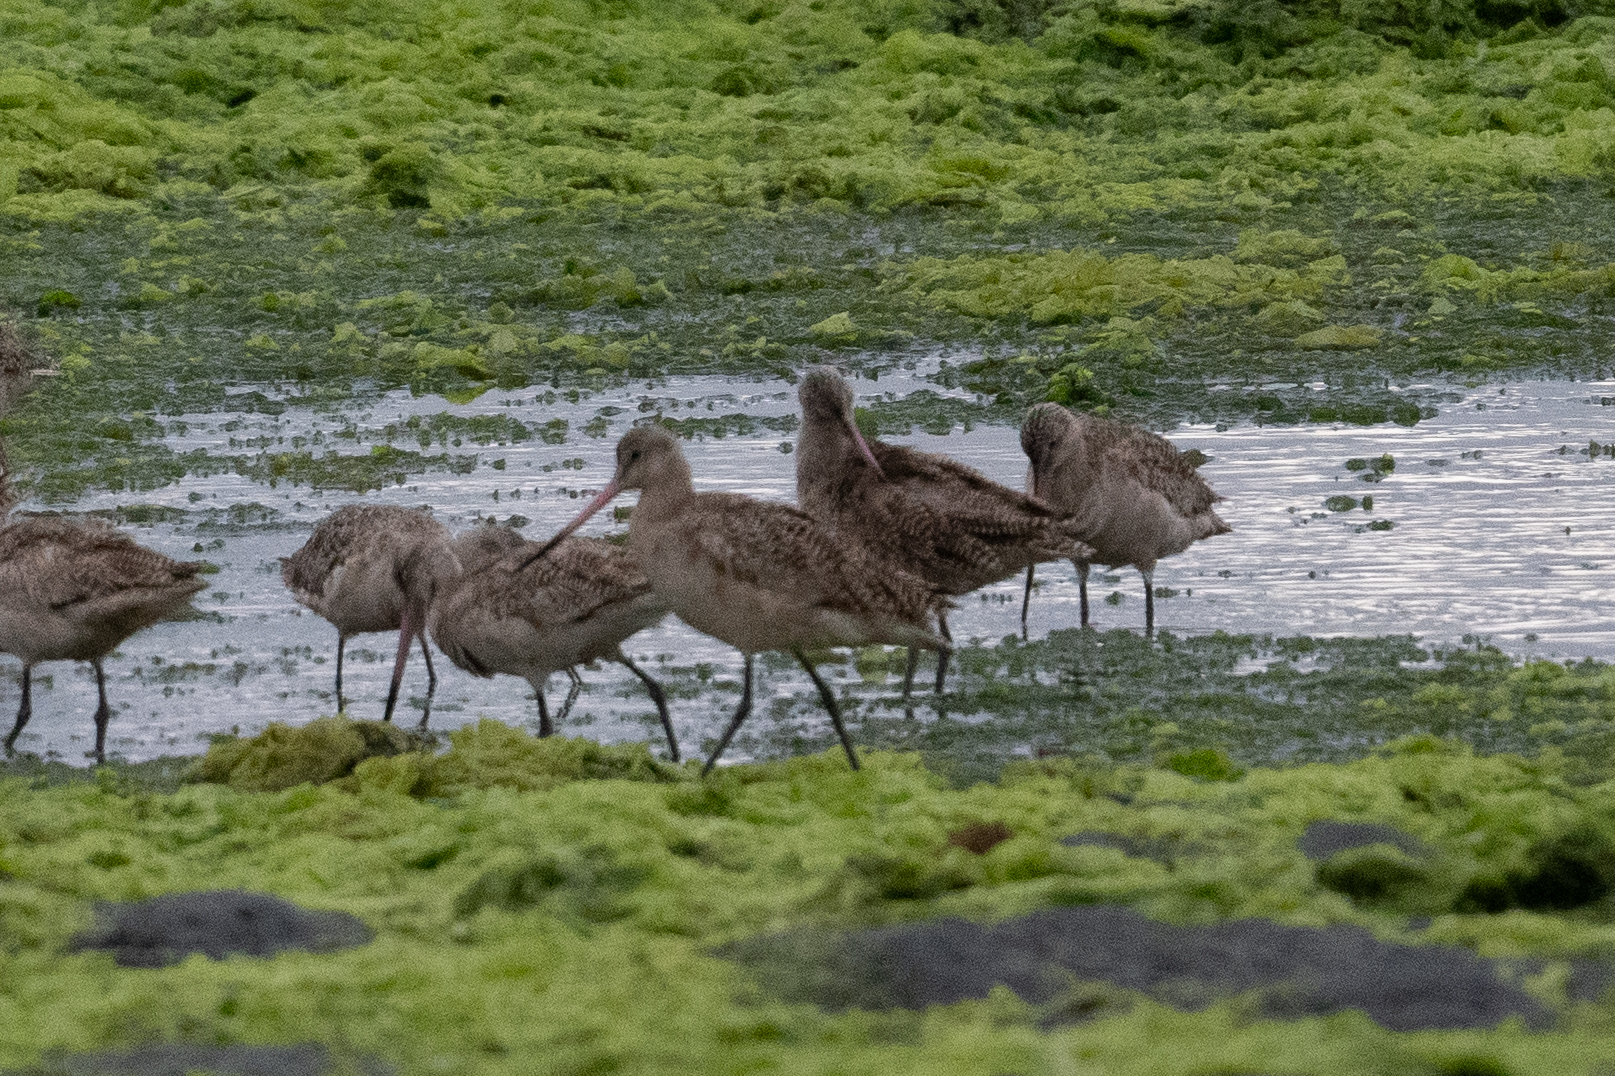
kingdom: Animalia
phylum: Chordata
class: Aves
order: Charadriiformes
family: Scolopacidae
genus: Limosa
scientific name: Limosa fedoa
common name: Marbled godwit
